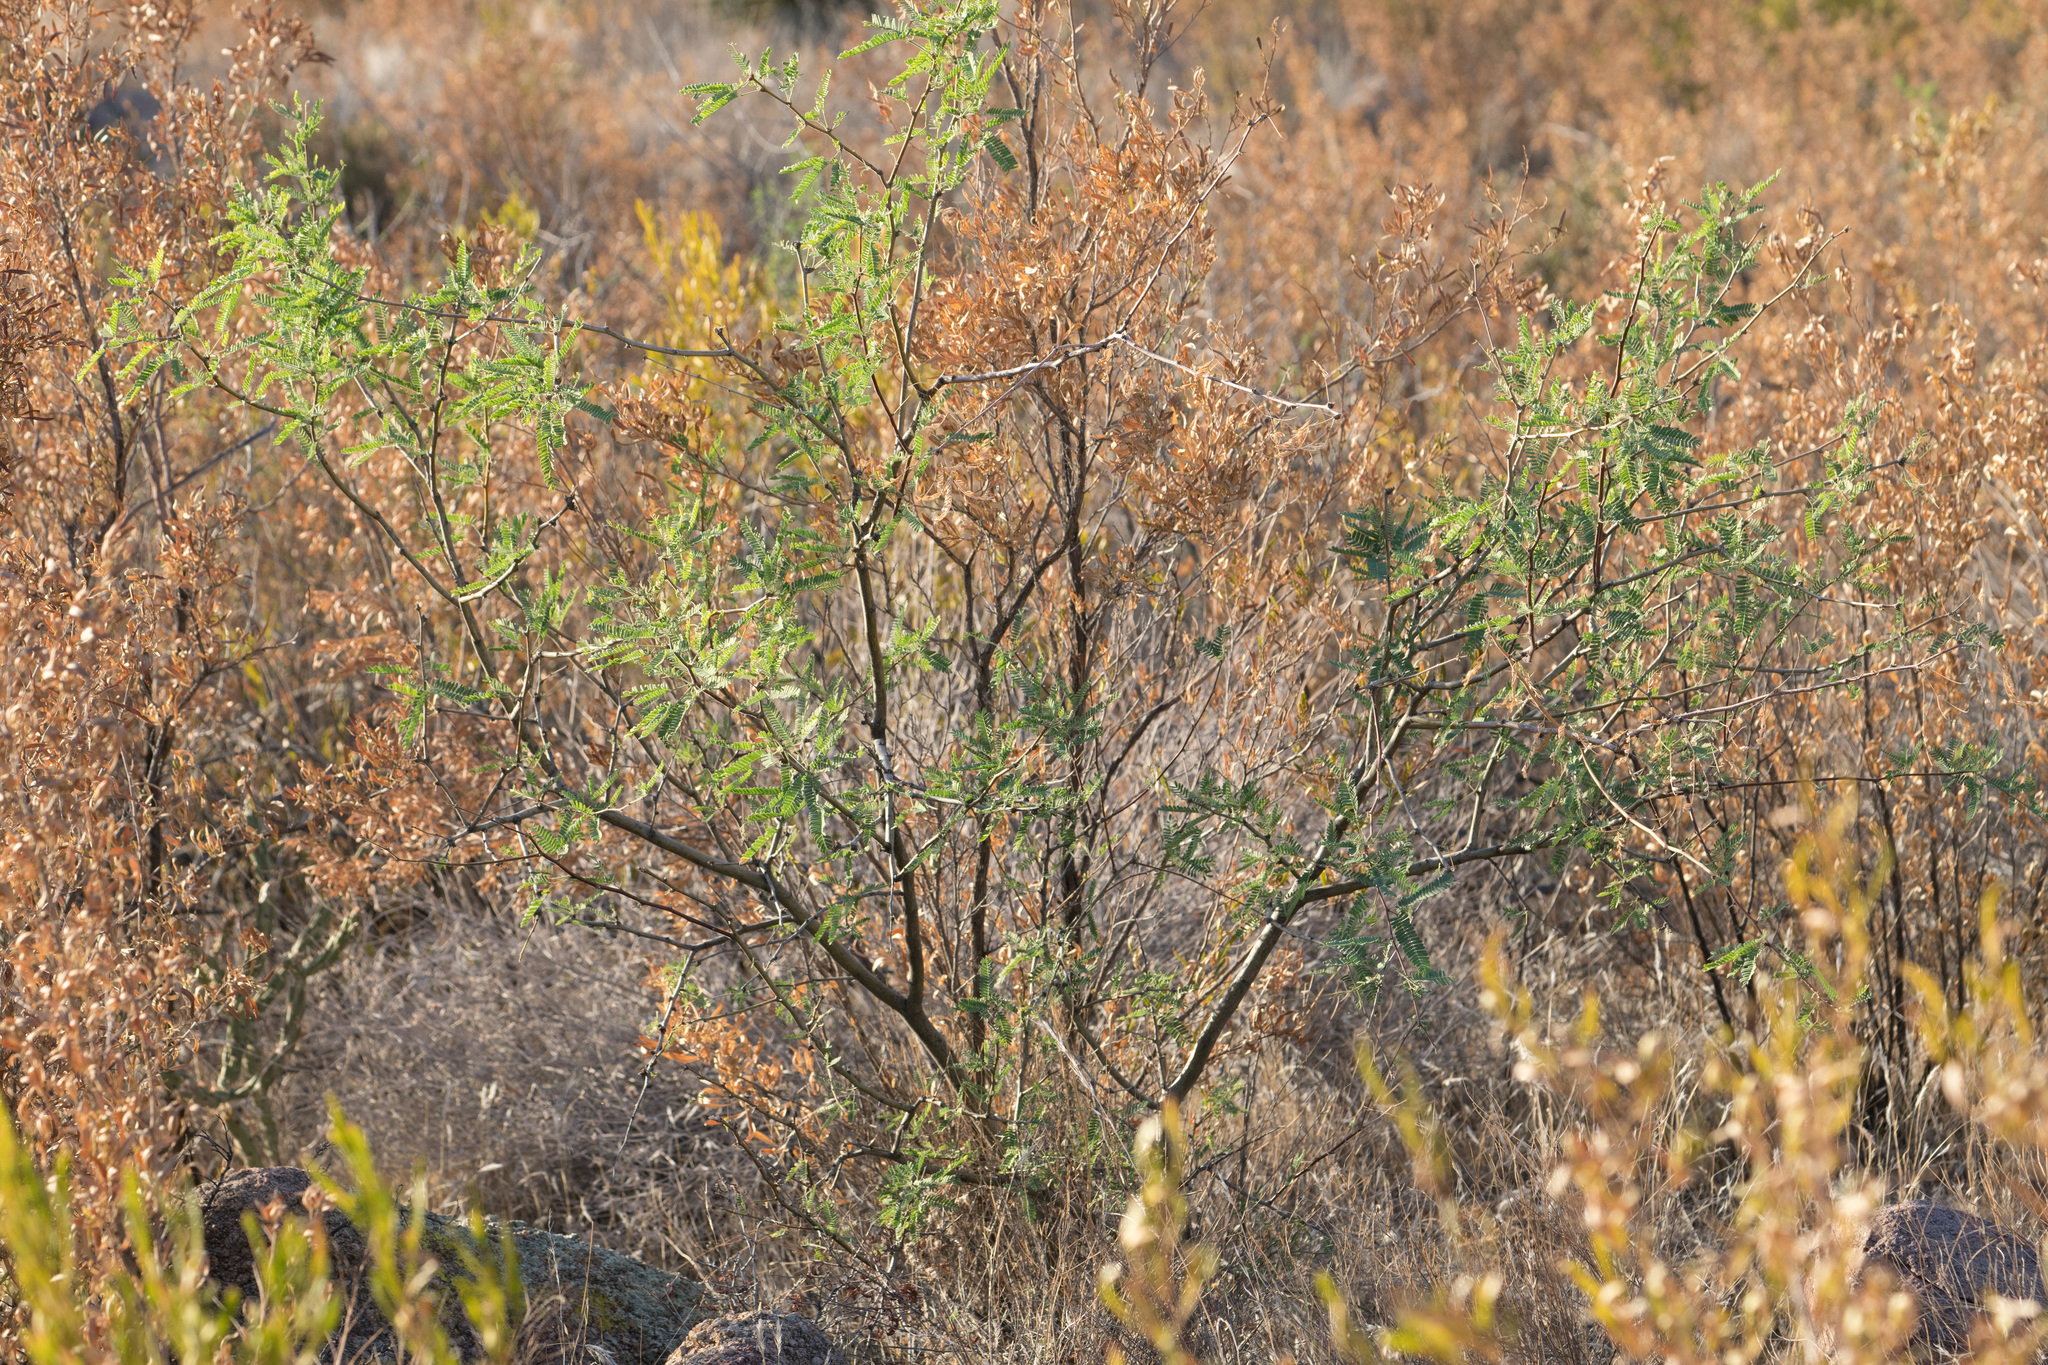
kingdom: Plantae
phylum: Tracheophyta
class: Magnoliopsida
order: Fabales
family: Fabaceae
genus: Prosopis
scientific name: Prosopis velutina
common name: Velvet mesquite
